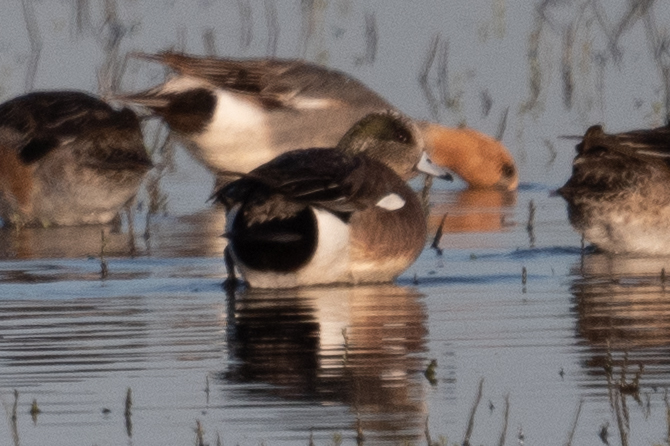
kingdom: Animalia
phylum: Chordata
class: Aves
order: Anseriformes
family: Anatidae
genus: Mareca
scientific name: Mareca americana
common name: American wigeon
